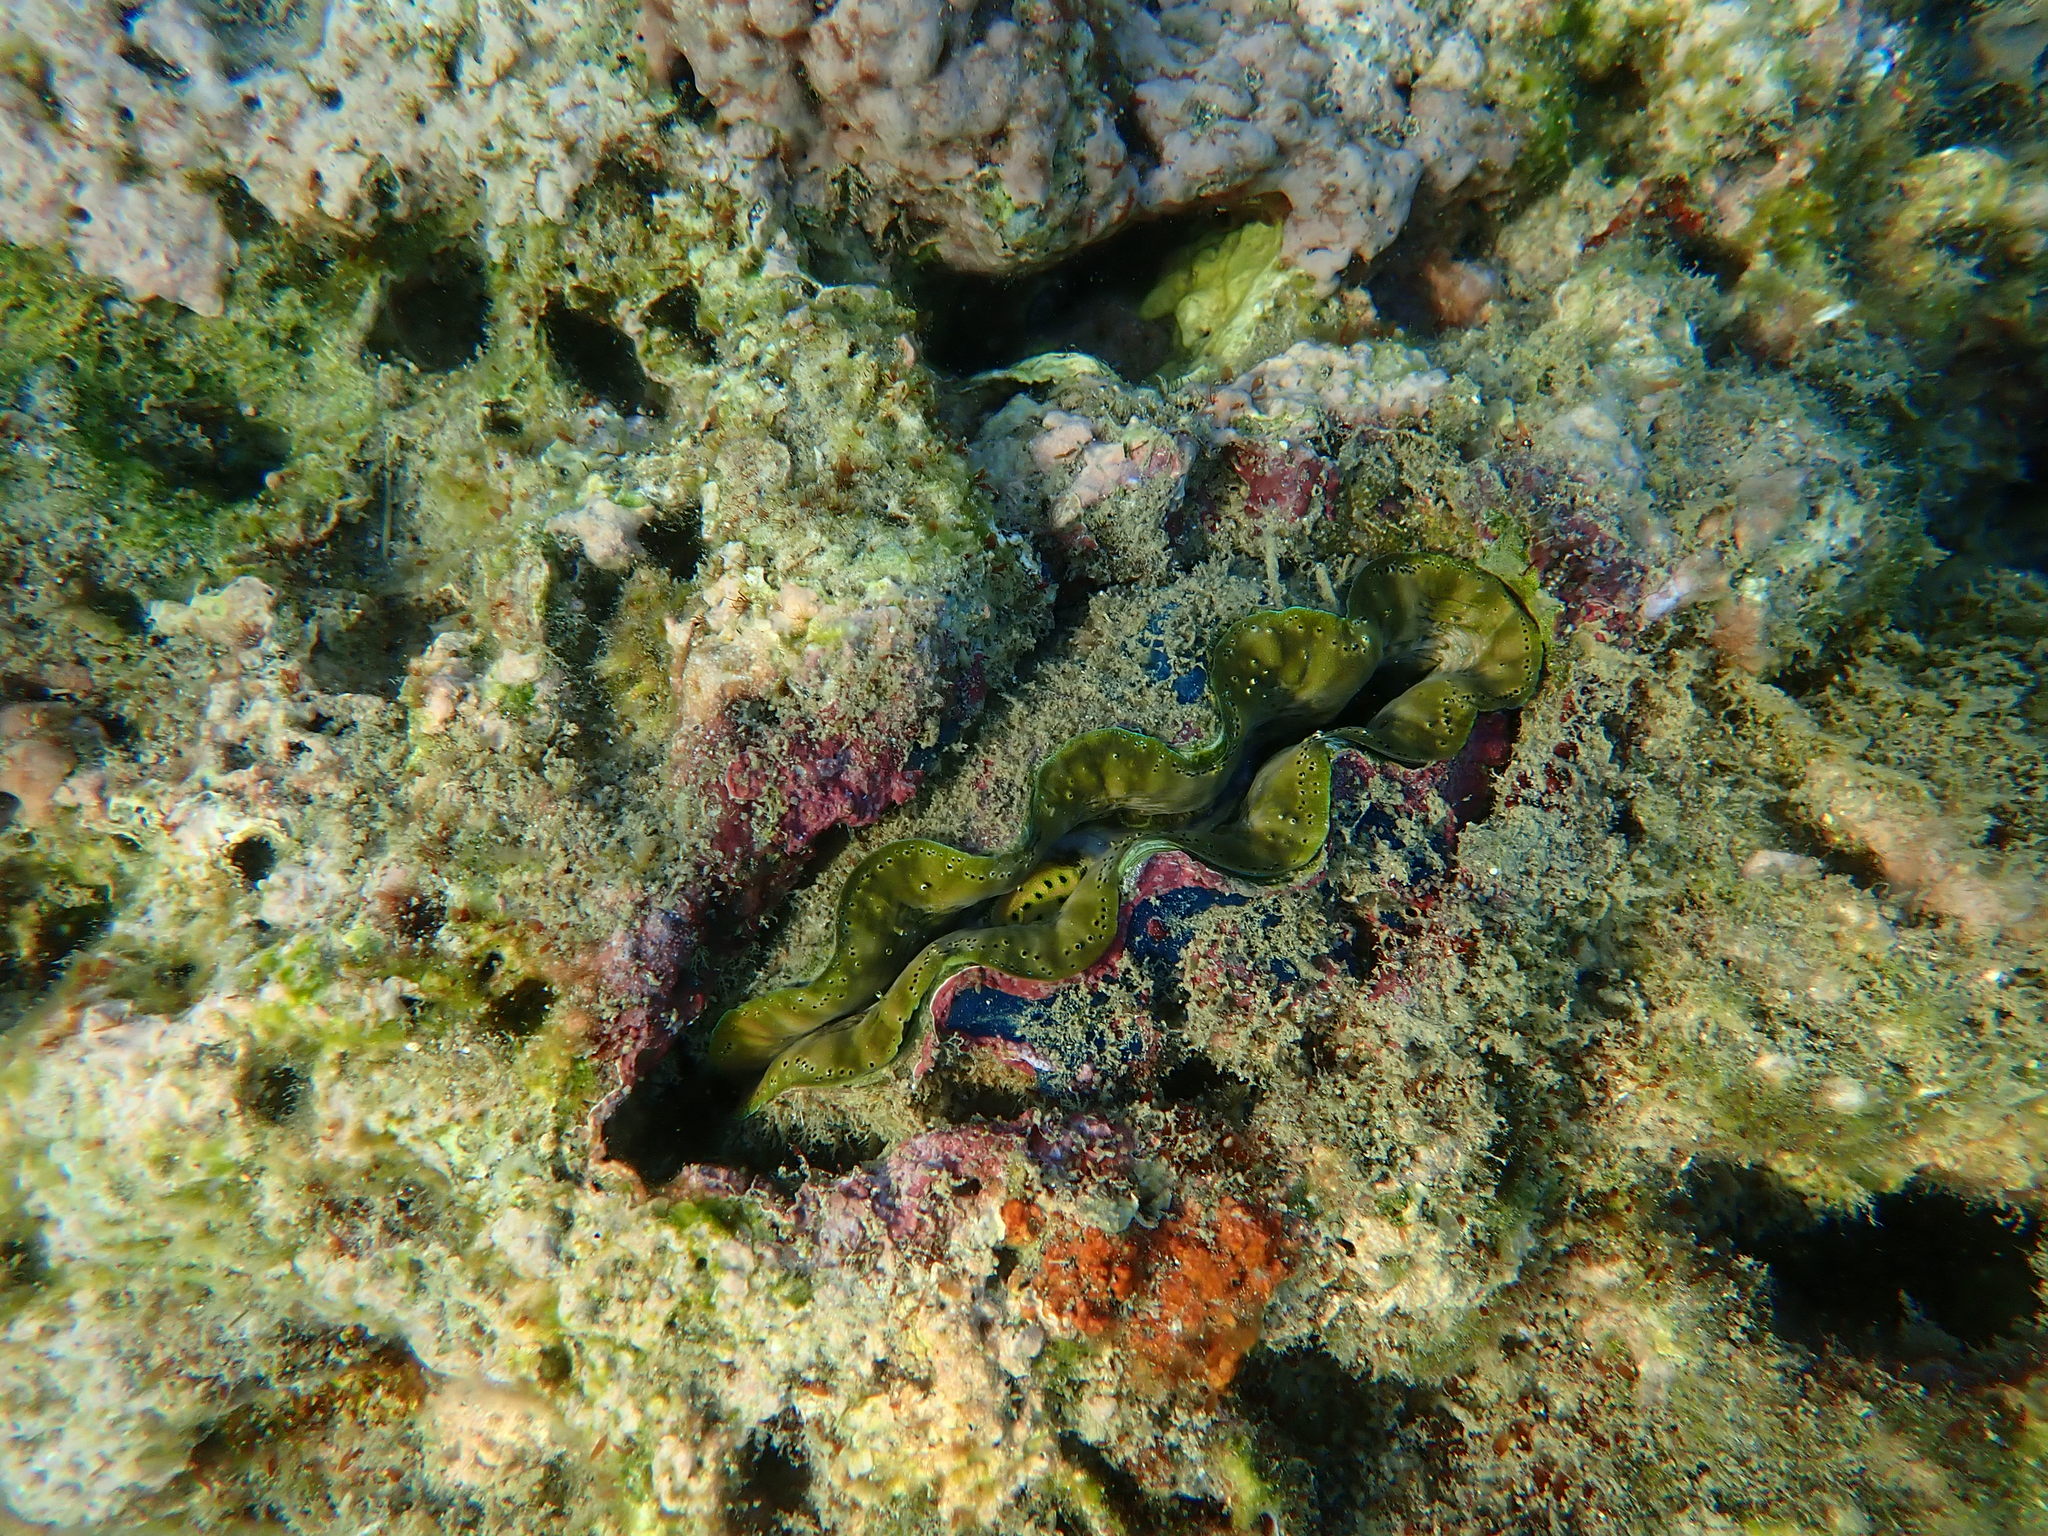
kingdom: Animalia
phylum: Mollusca
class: Bivalvia
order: Cardiida
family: Cardiidae
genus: Tridacna
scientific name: Tridacna crocea
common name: Boring clam
